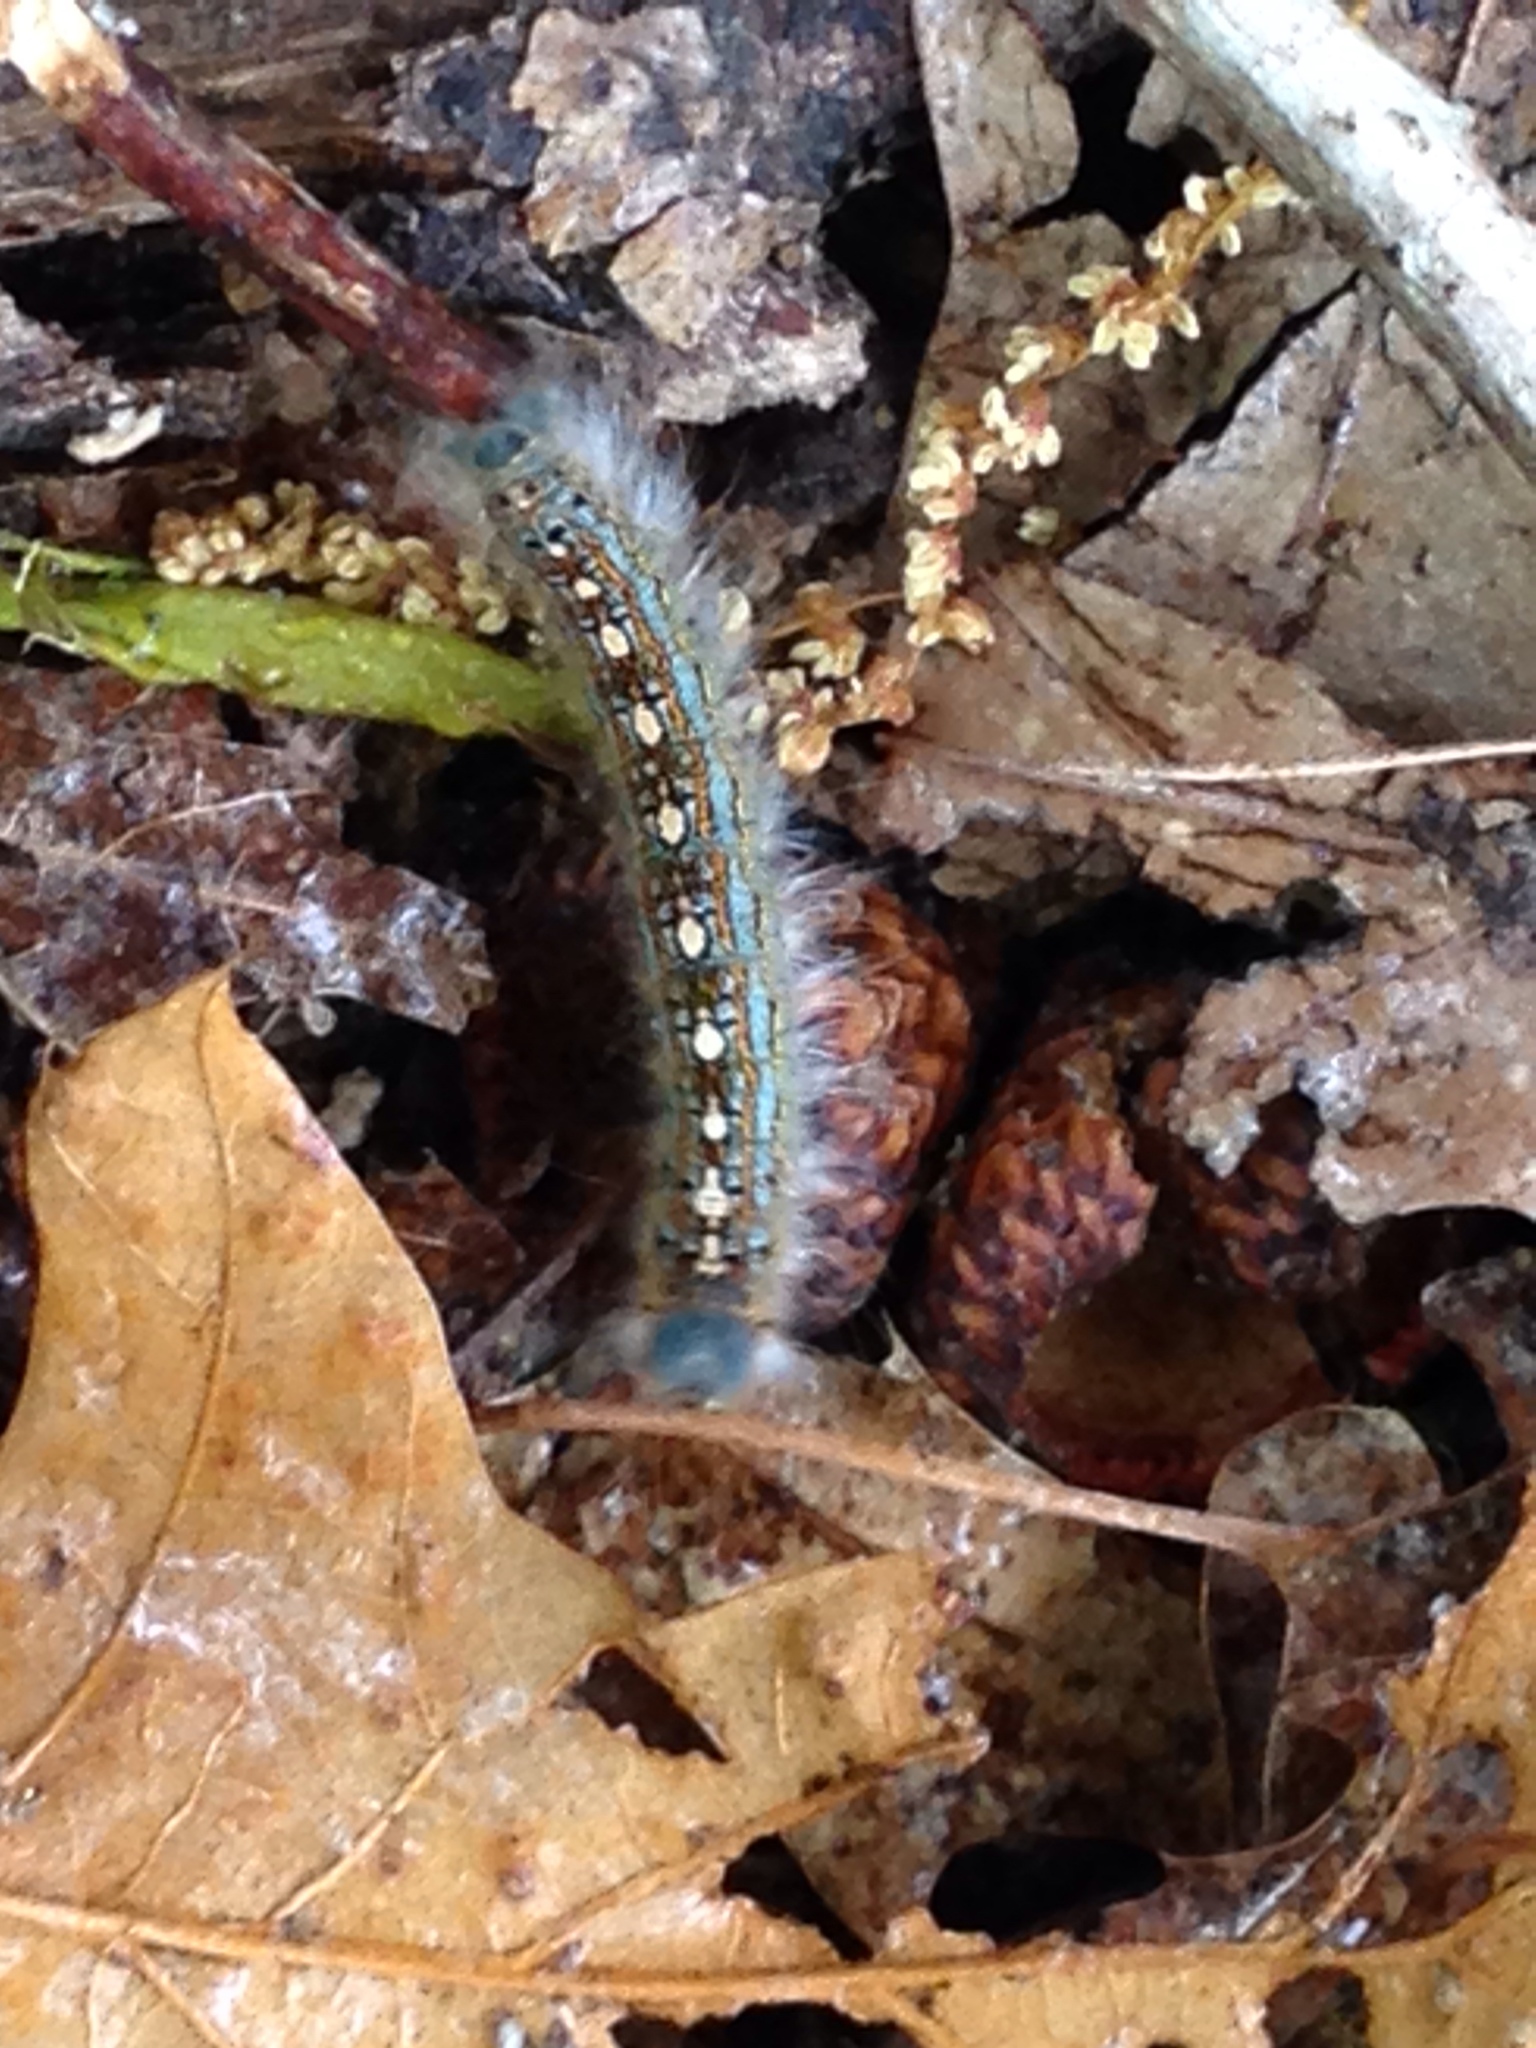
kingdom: Animalia
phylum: Arthropoda
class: Insecta
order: Lepidoptera
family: Lasiocampidae
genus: Malacosoma
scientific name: Malacosoma disstria
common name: Forest tent caterpillar
